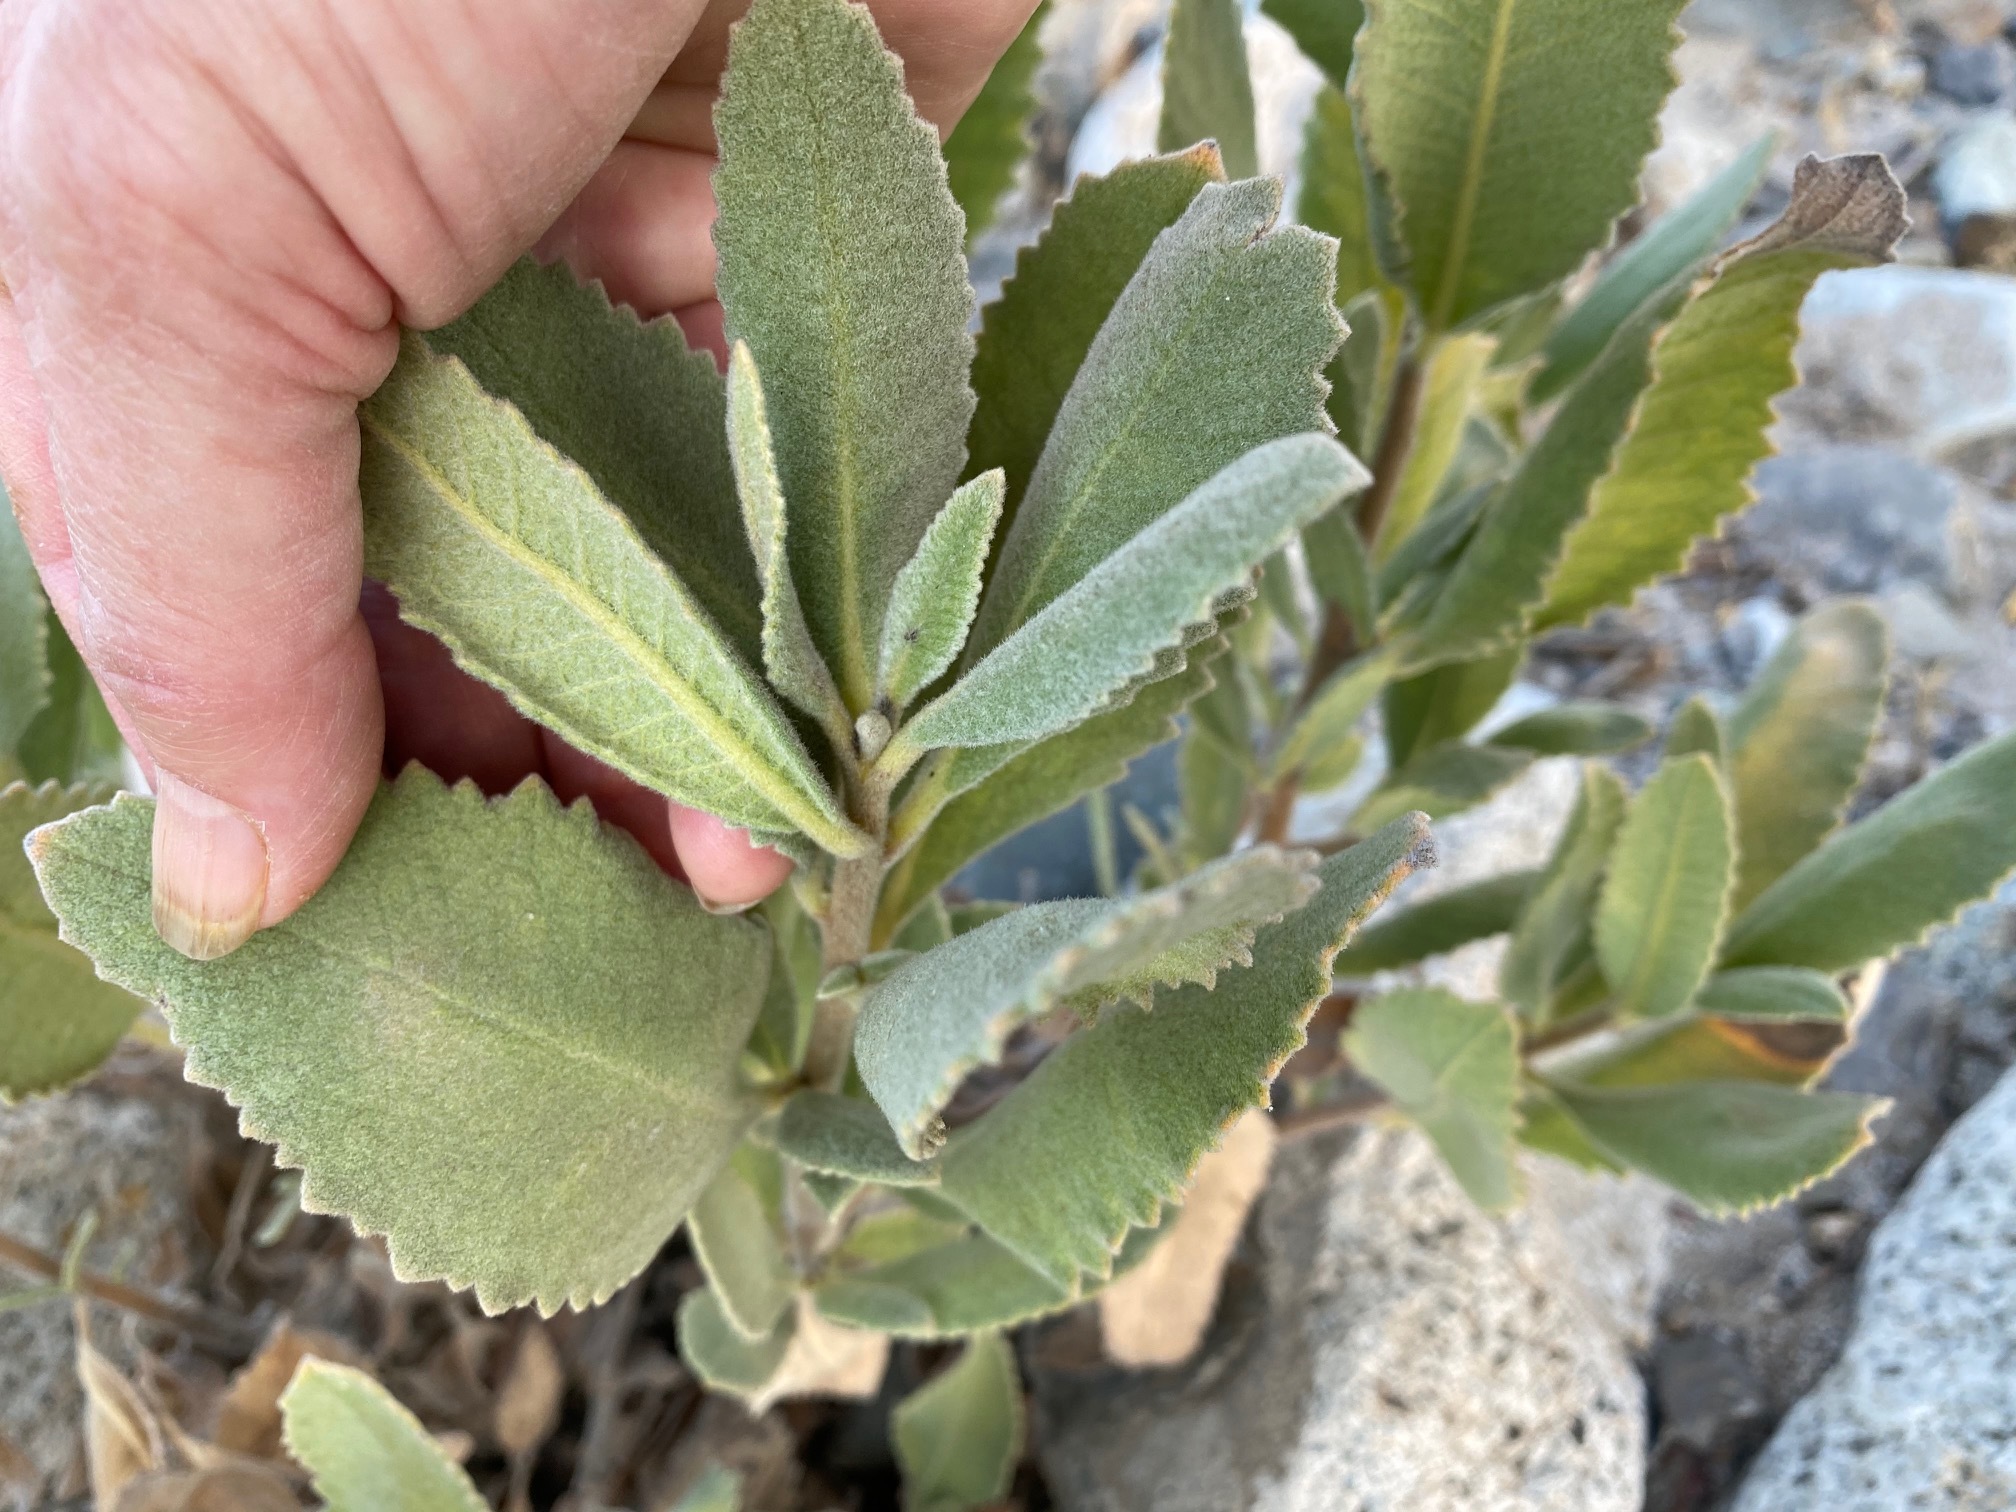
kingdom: Plantae
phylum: Tracheophyta
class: Magnoliopsida
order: Boraginales
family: Namaceae
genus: Eriodictyon
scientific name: Eriodictyon crassifolium
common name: Thick-leaf yerba-santa
